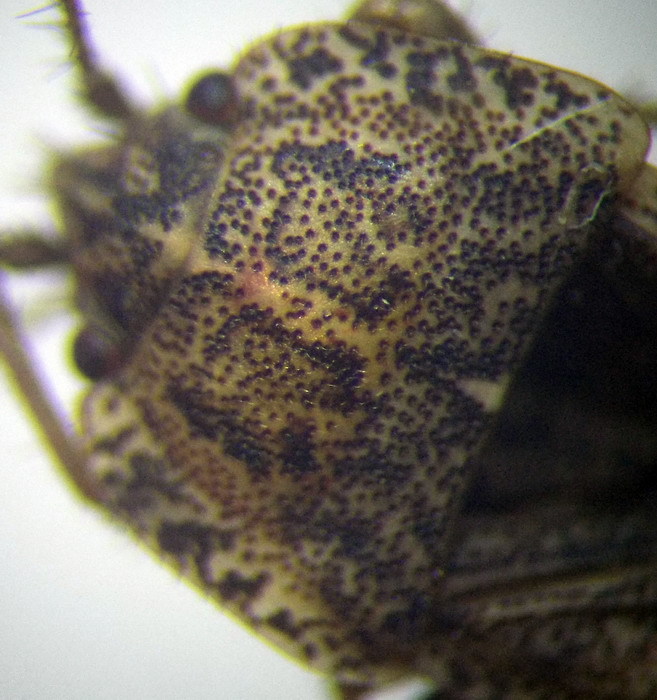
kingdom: Animalia
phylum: Arthropoda
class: Insecta
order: Hemiptera
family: Rhyparochromidae
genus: Emblethis
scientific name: Emblethis ciliatus
